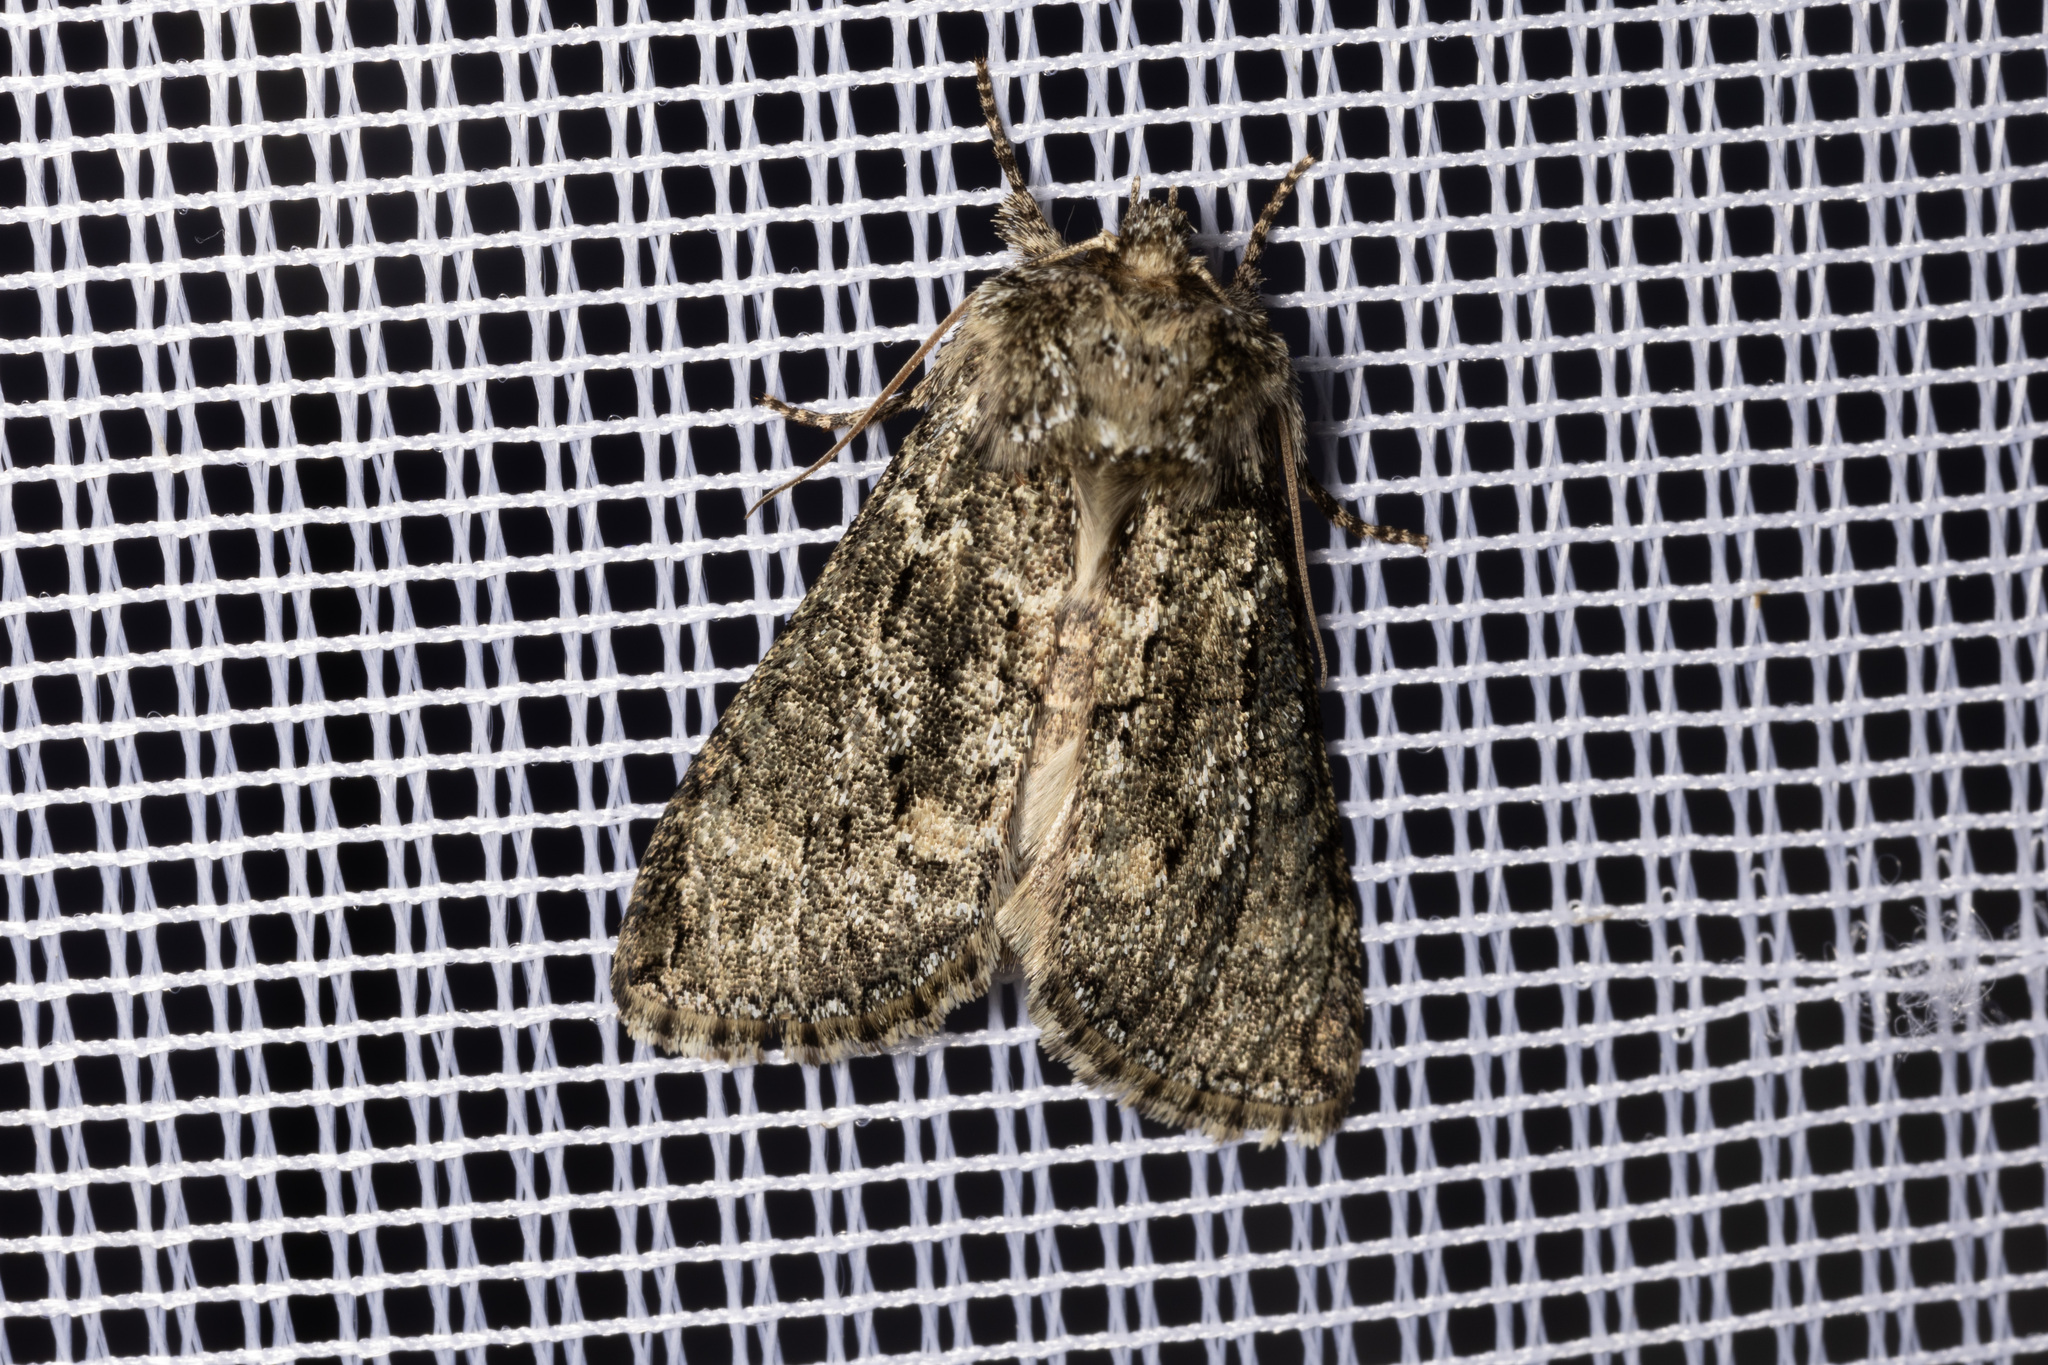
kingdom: Animalia
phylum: Arthropoda
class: Insecta
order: Lepidoptera
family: Drepanidae
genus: Polyploca
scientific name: Polyploca ridens
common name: Frosted green
